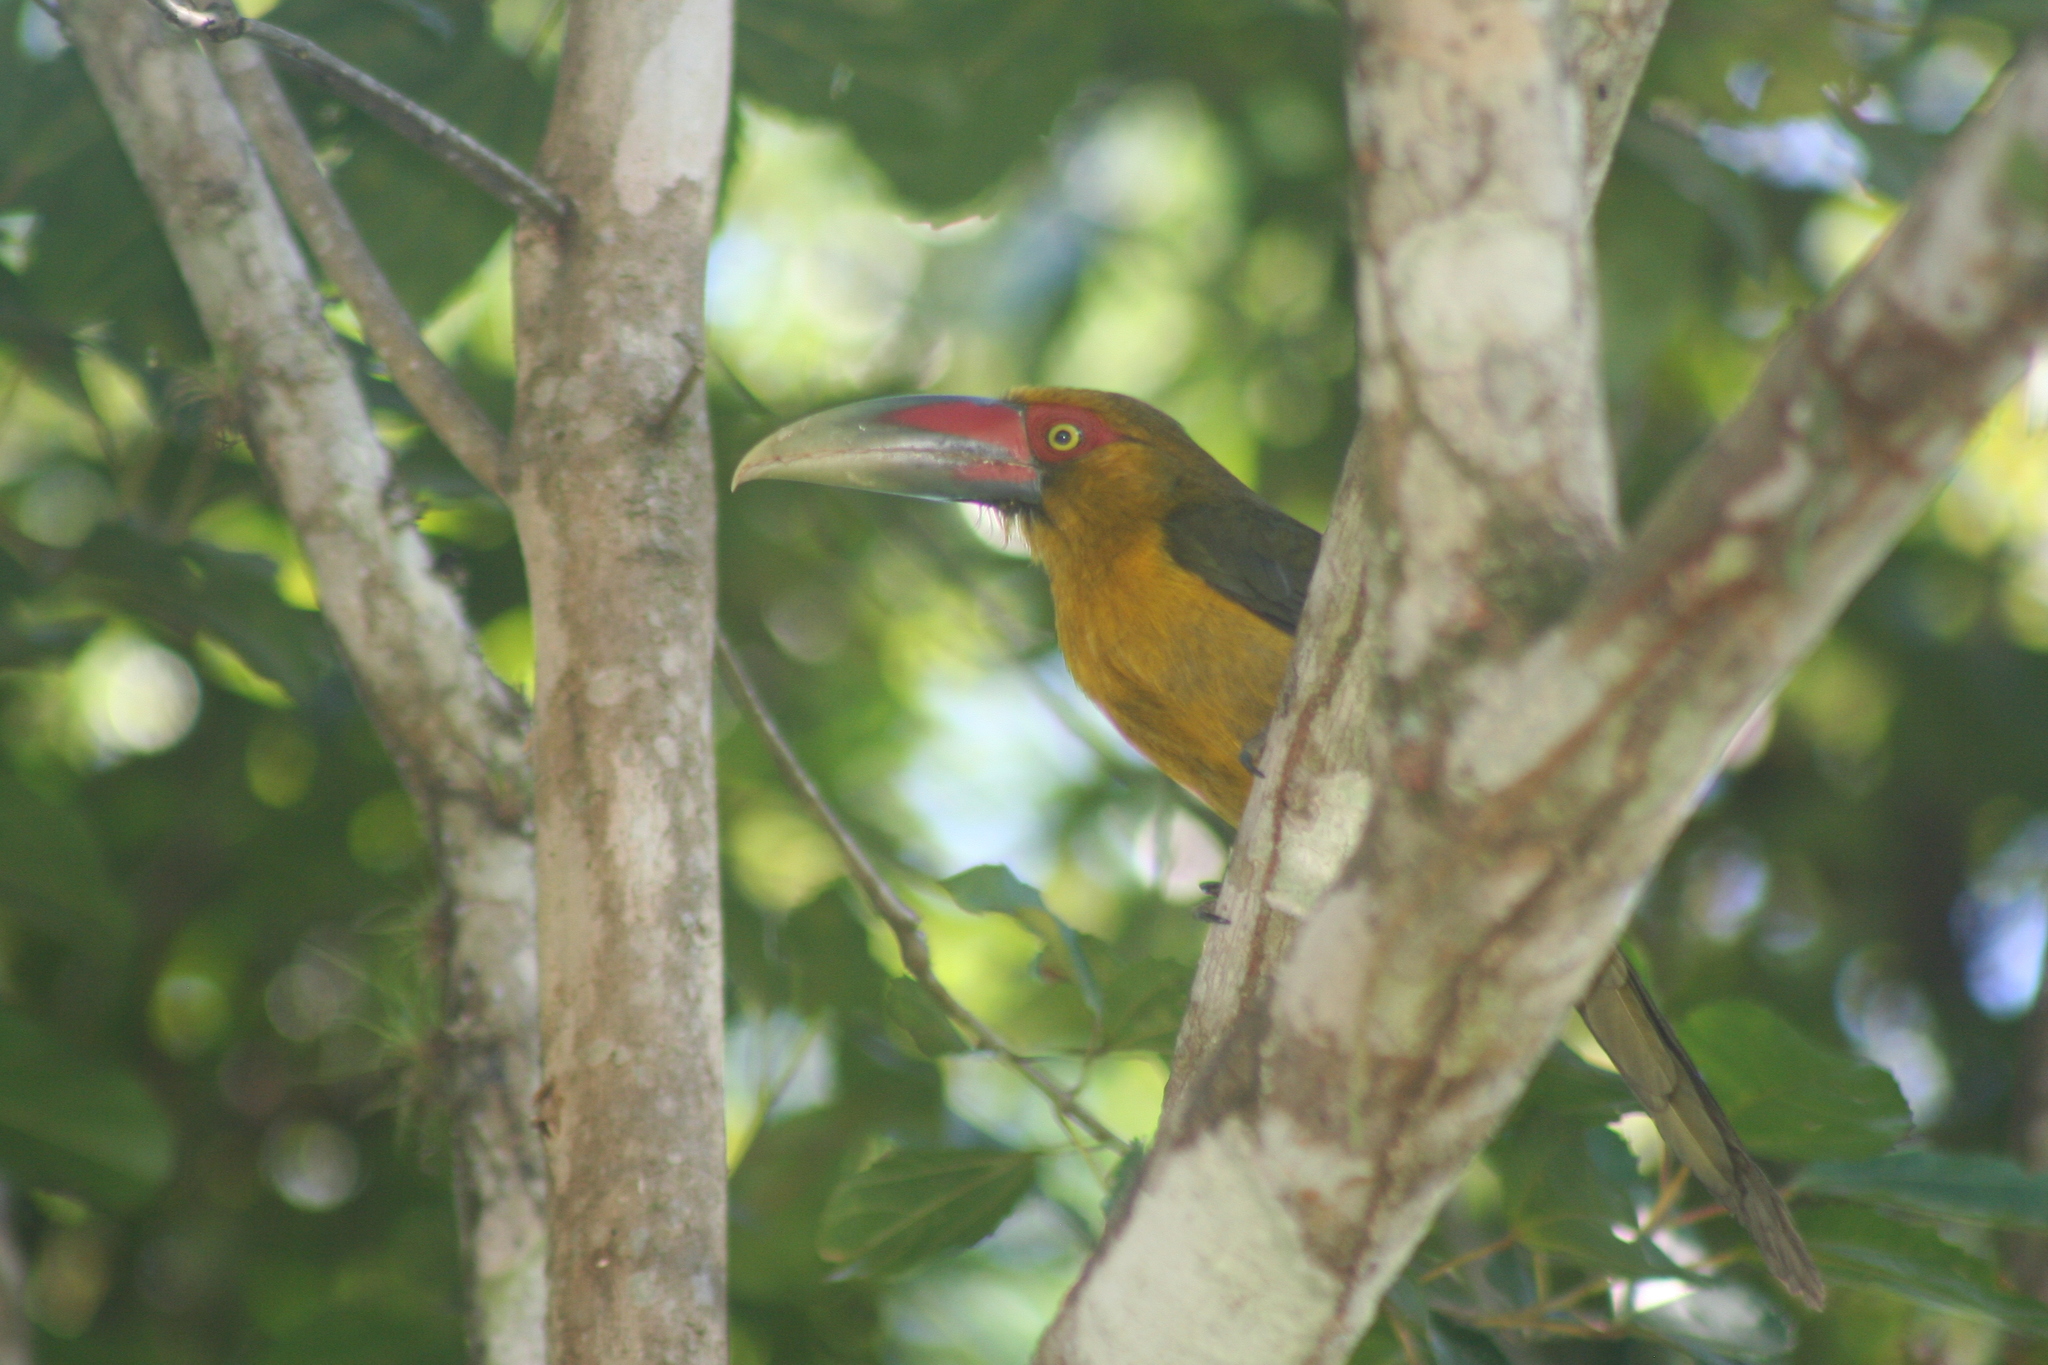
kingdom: Animalia
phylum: Chordata
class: Aves
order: Piciformes
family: Ramphastidae
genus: Pteroglossus
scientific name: Pteroglossus bailloni
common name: Saffron toucanet
